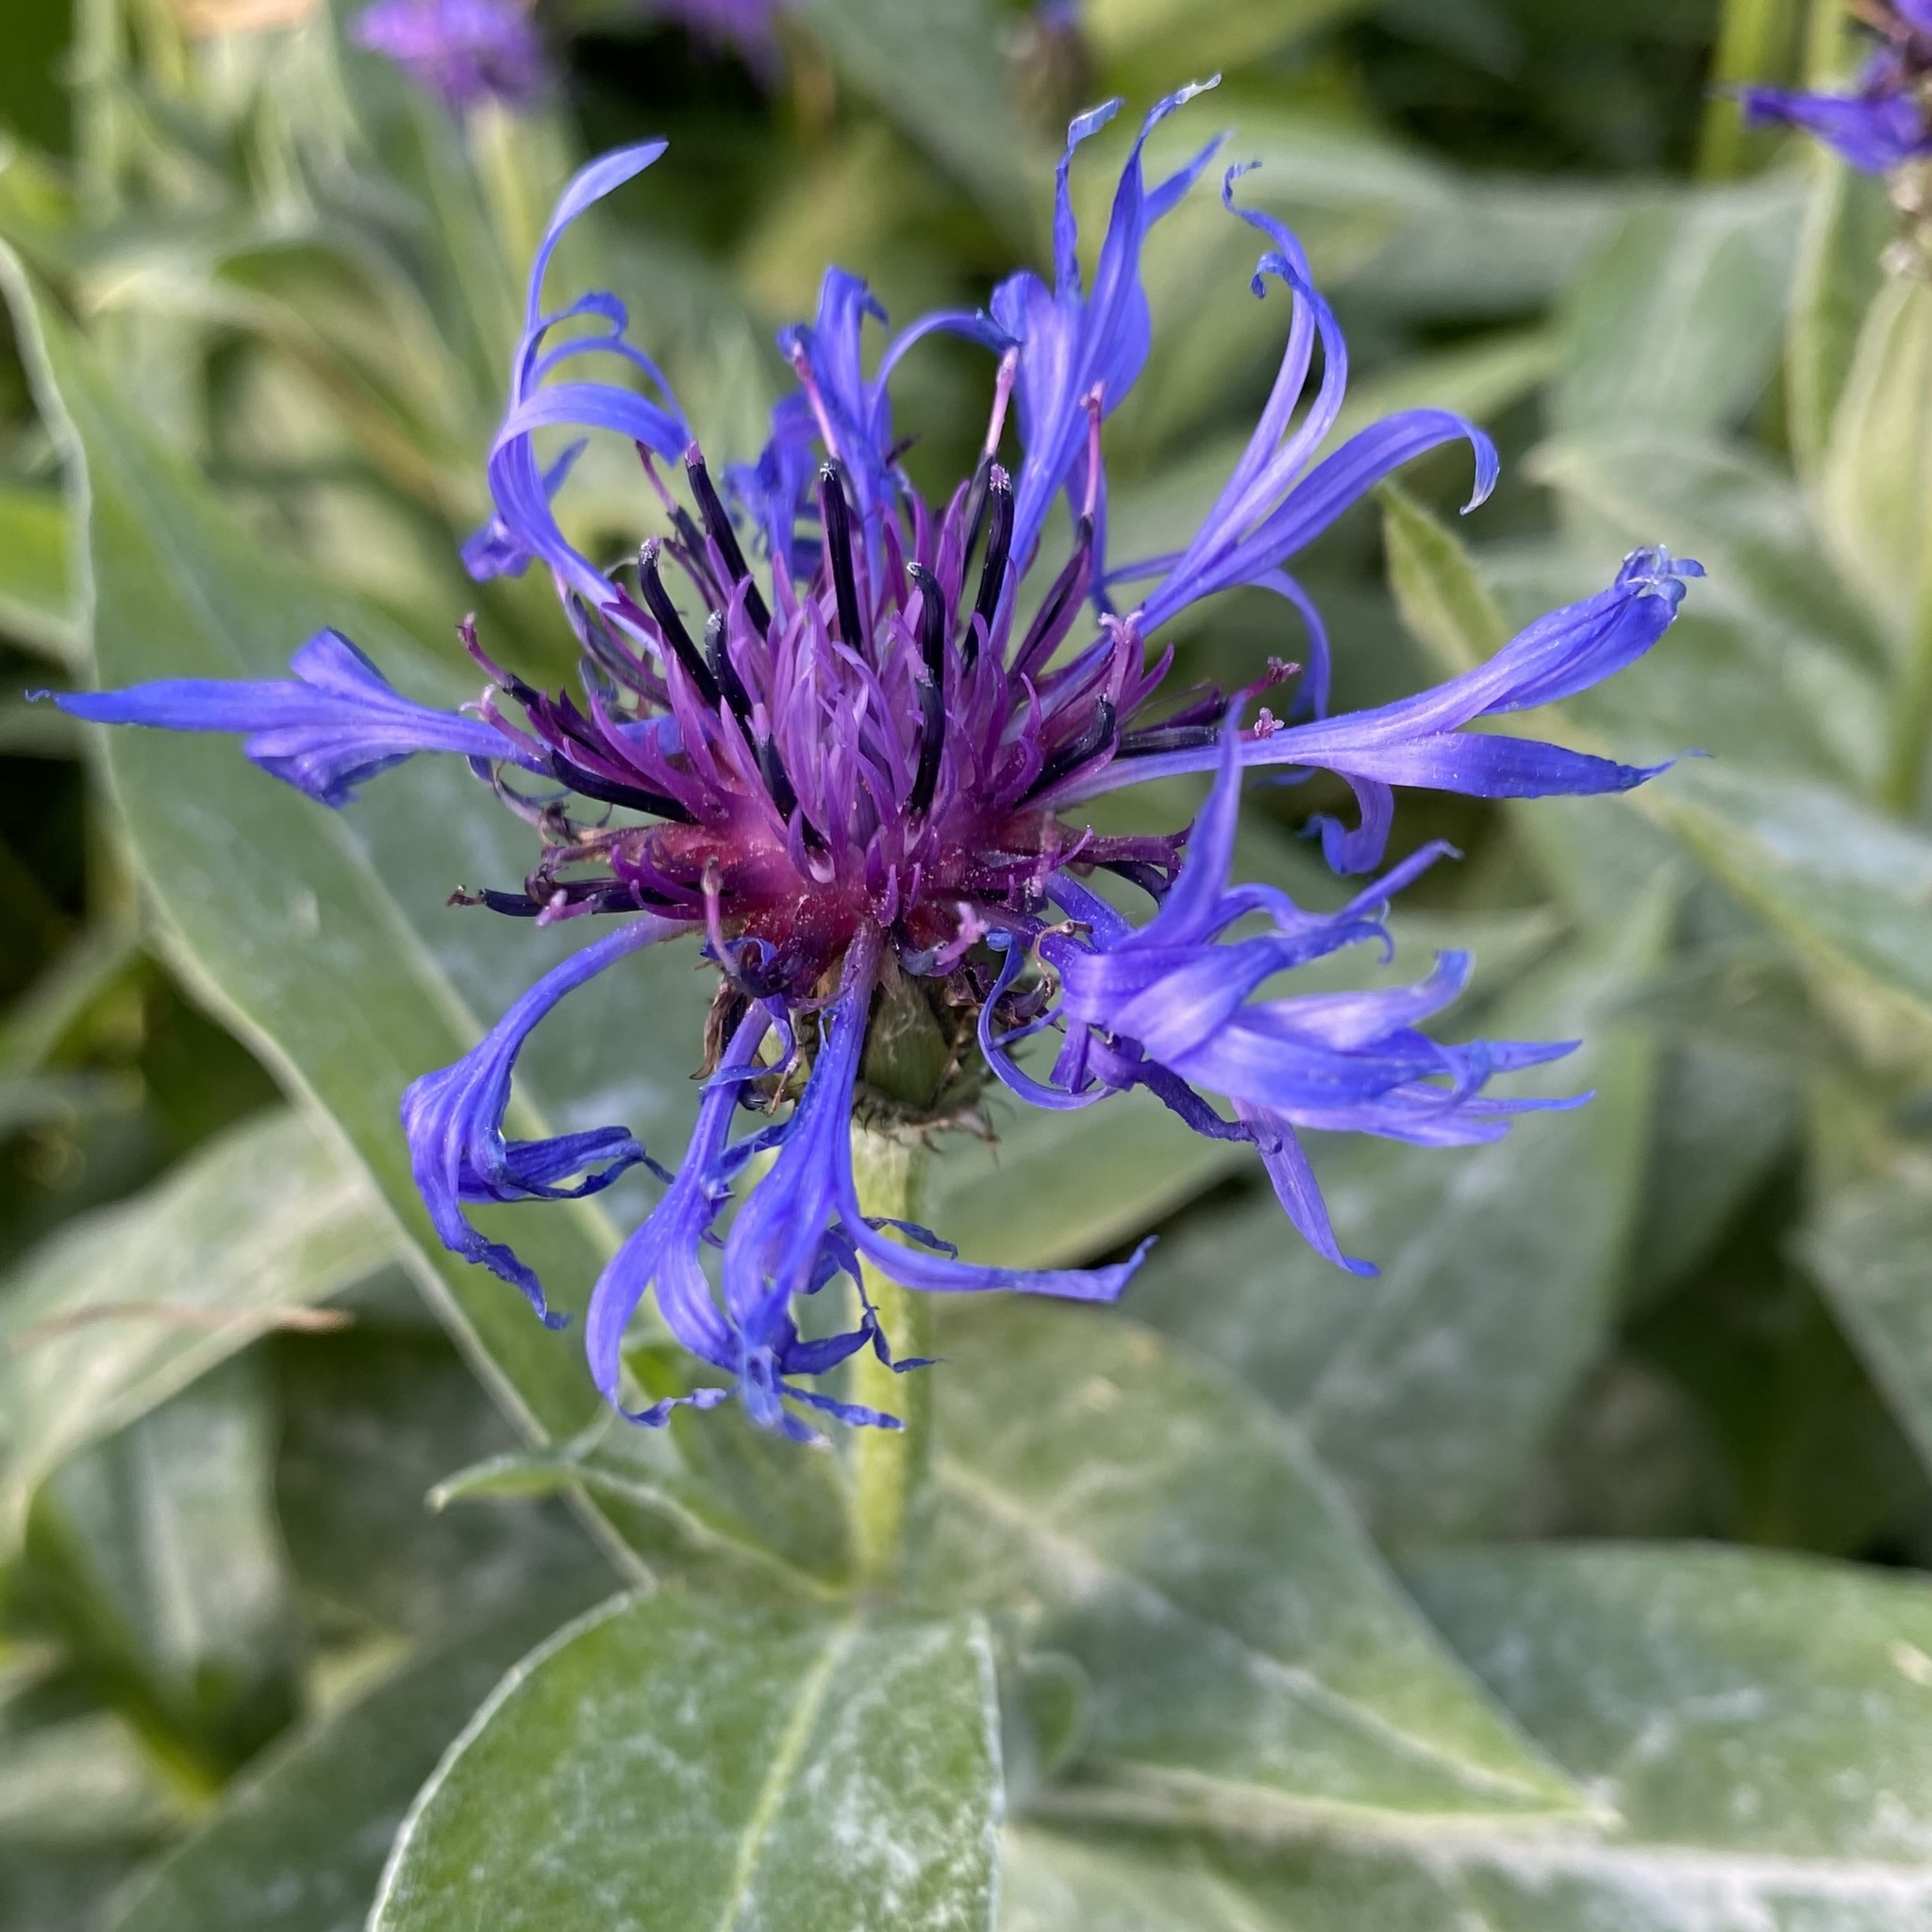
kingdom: Plantae
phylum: Tracheophyta
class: Magnoliopsida
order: Asterales
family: Asteraceae
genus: Centaurea
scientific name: Centaurea montana
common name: Perennial cornflower
